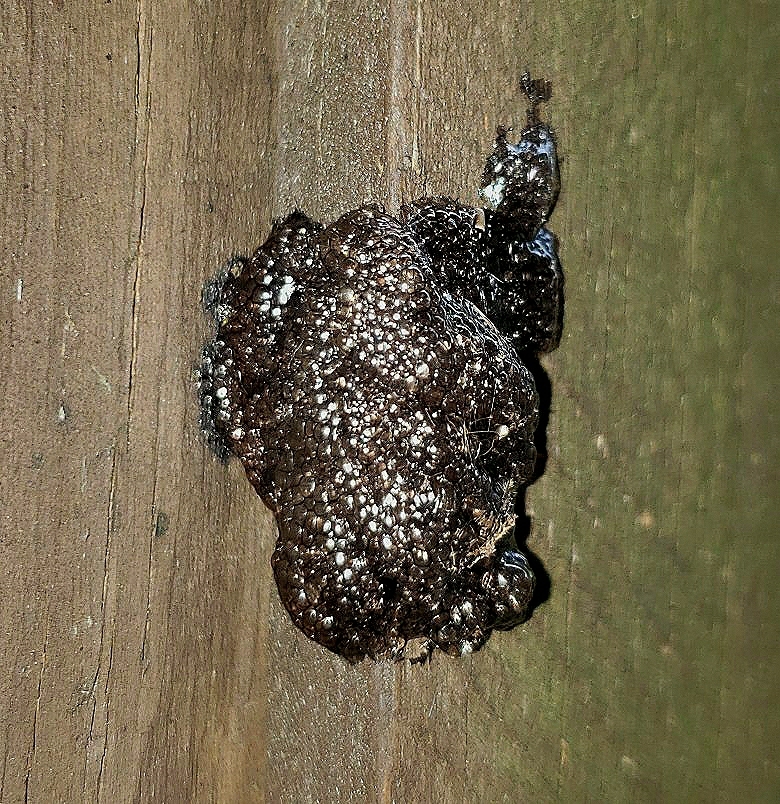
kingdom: Animalia
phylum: Arthropoda
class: Insecta
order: Lepidoptera
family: Lasiocampidae
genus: Malacosoma
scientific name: Malacosoma americana
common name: Eastern tent caterpillar moth
